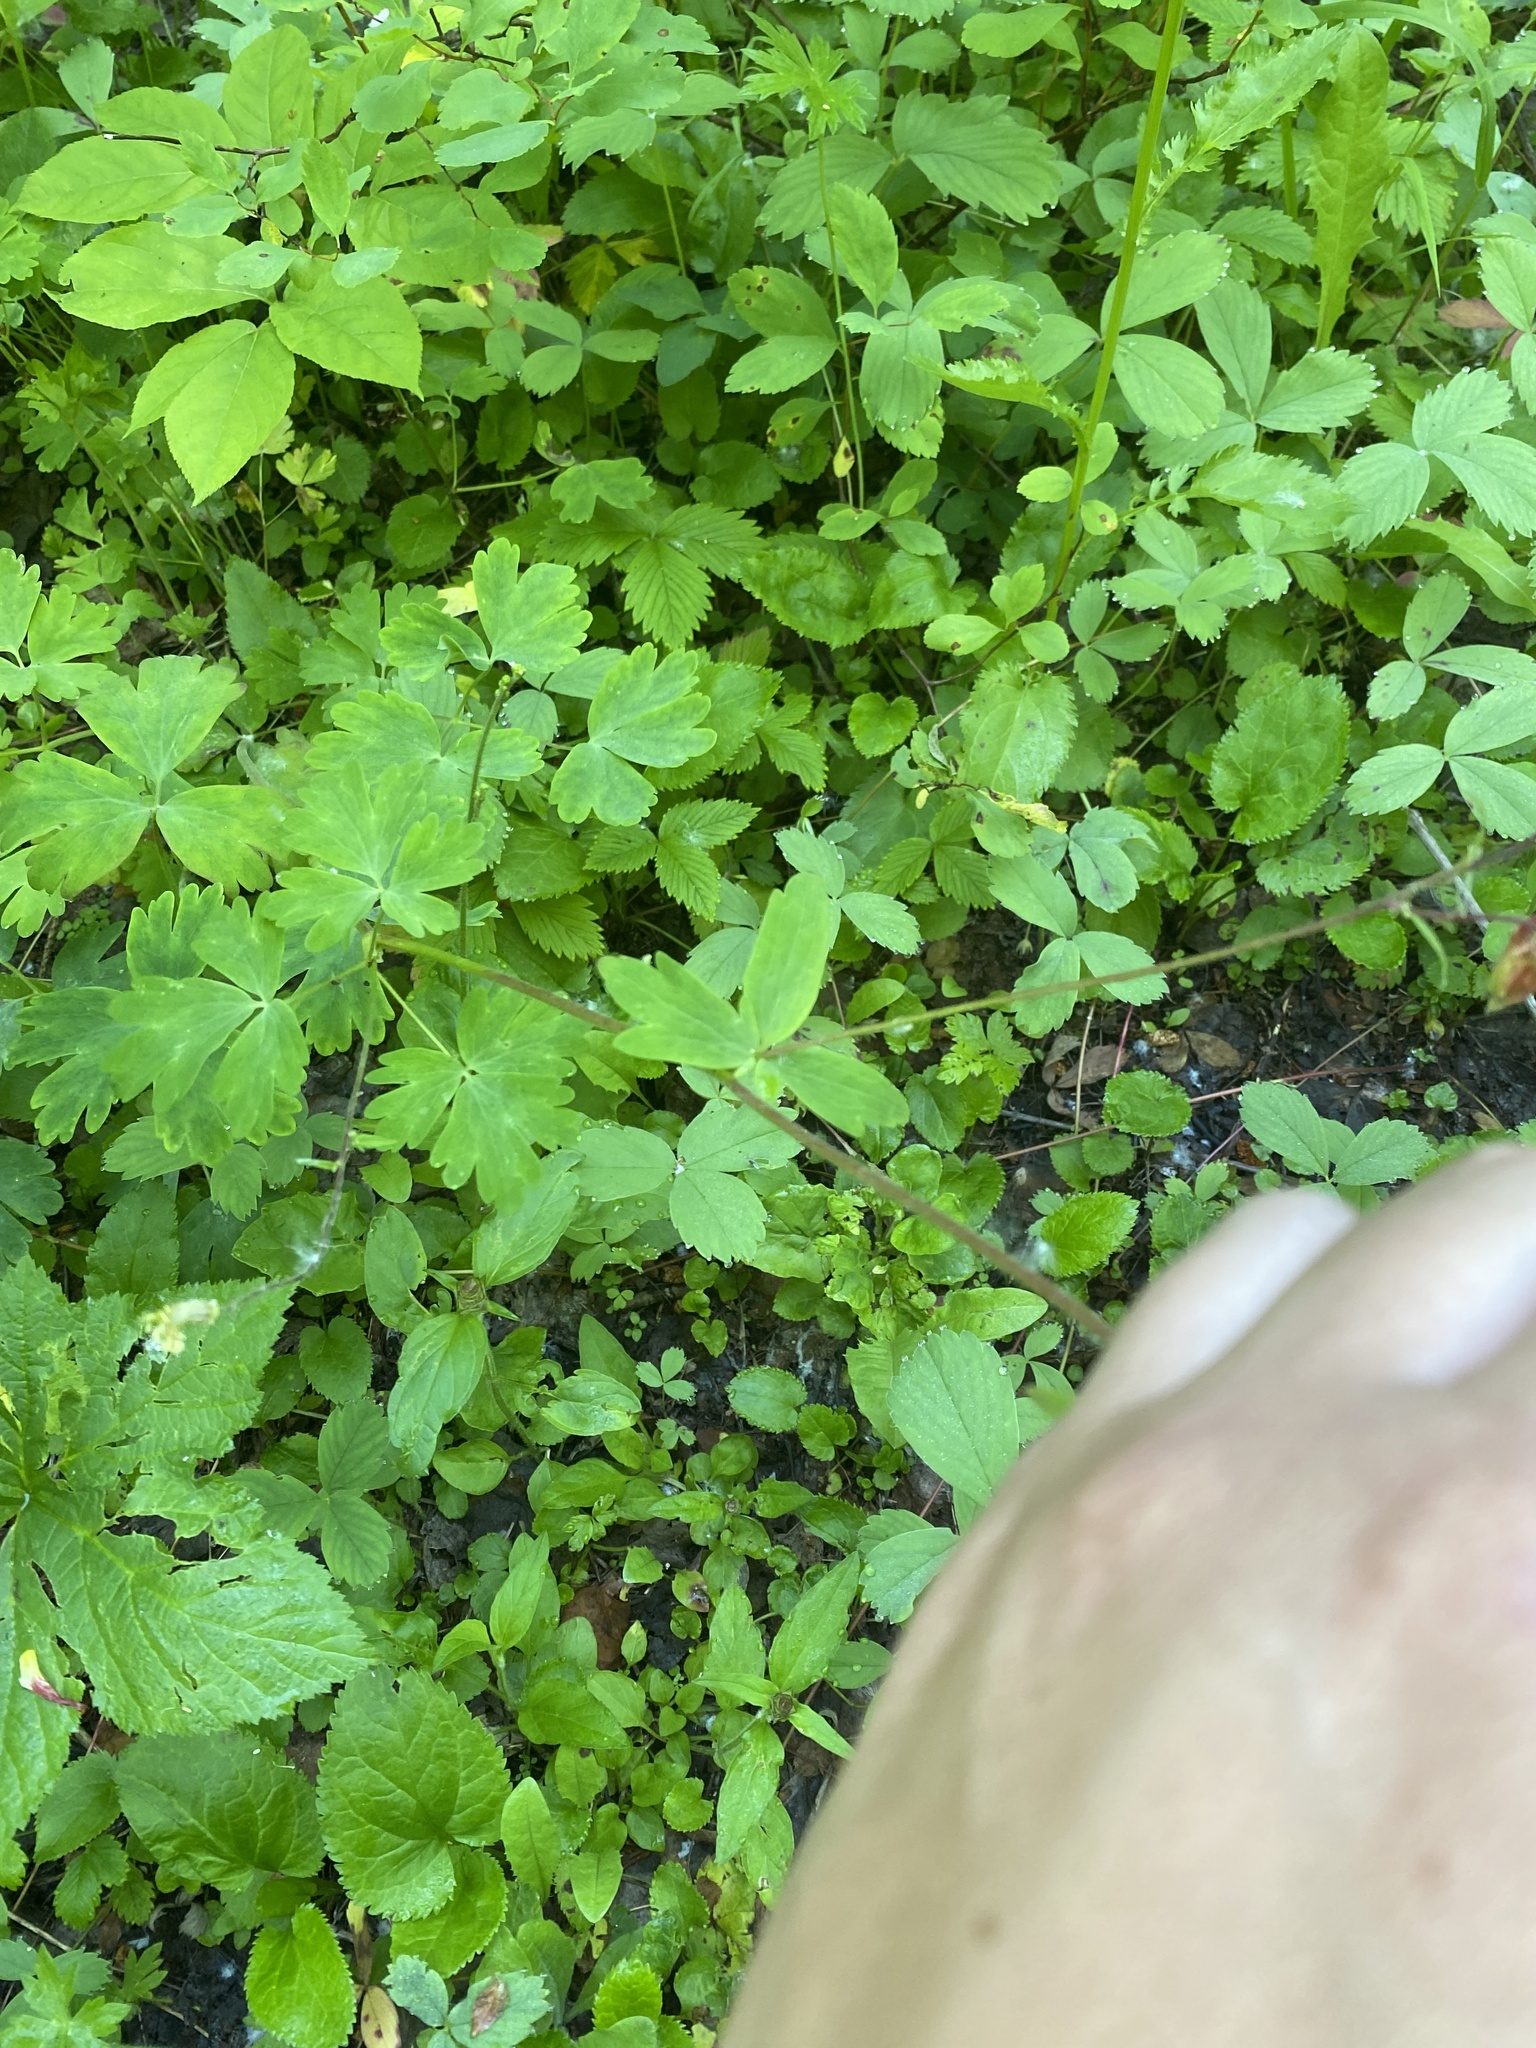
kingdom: Plantae
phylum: Tracheophyta
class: Magnoliopsida
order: Ranunculales
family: Ranunculaceae
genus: Aquilegia
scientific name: Aquilegia formosa
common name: Sitka columbine
